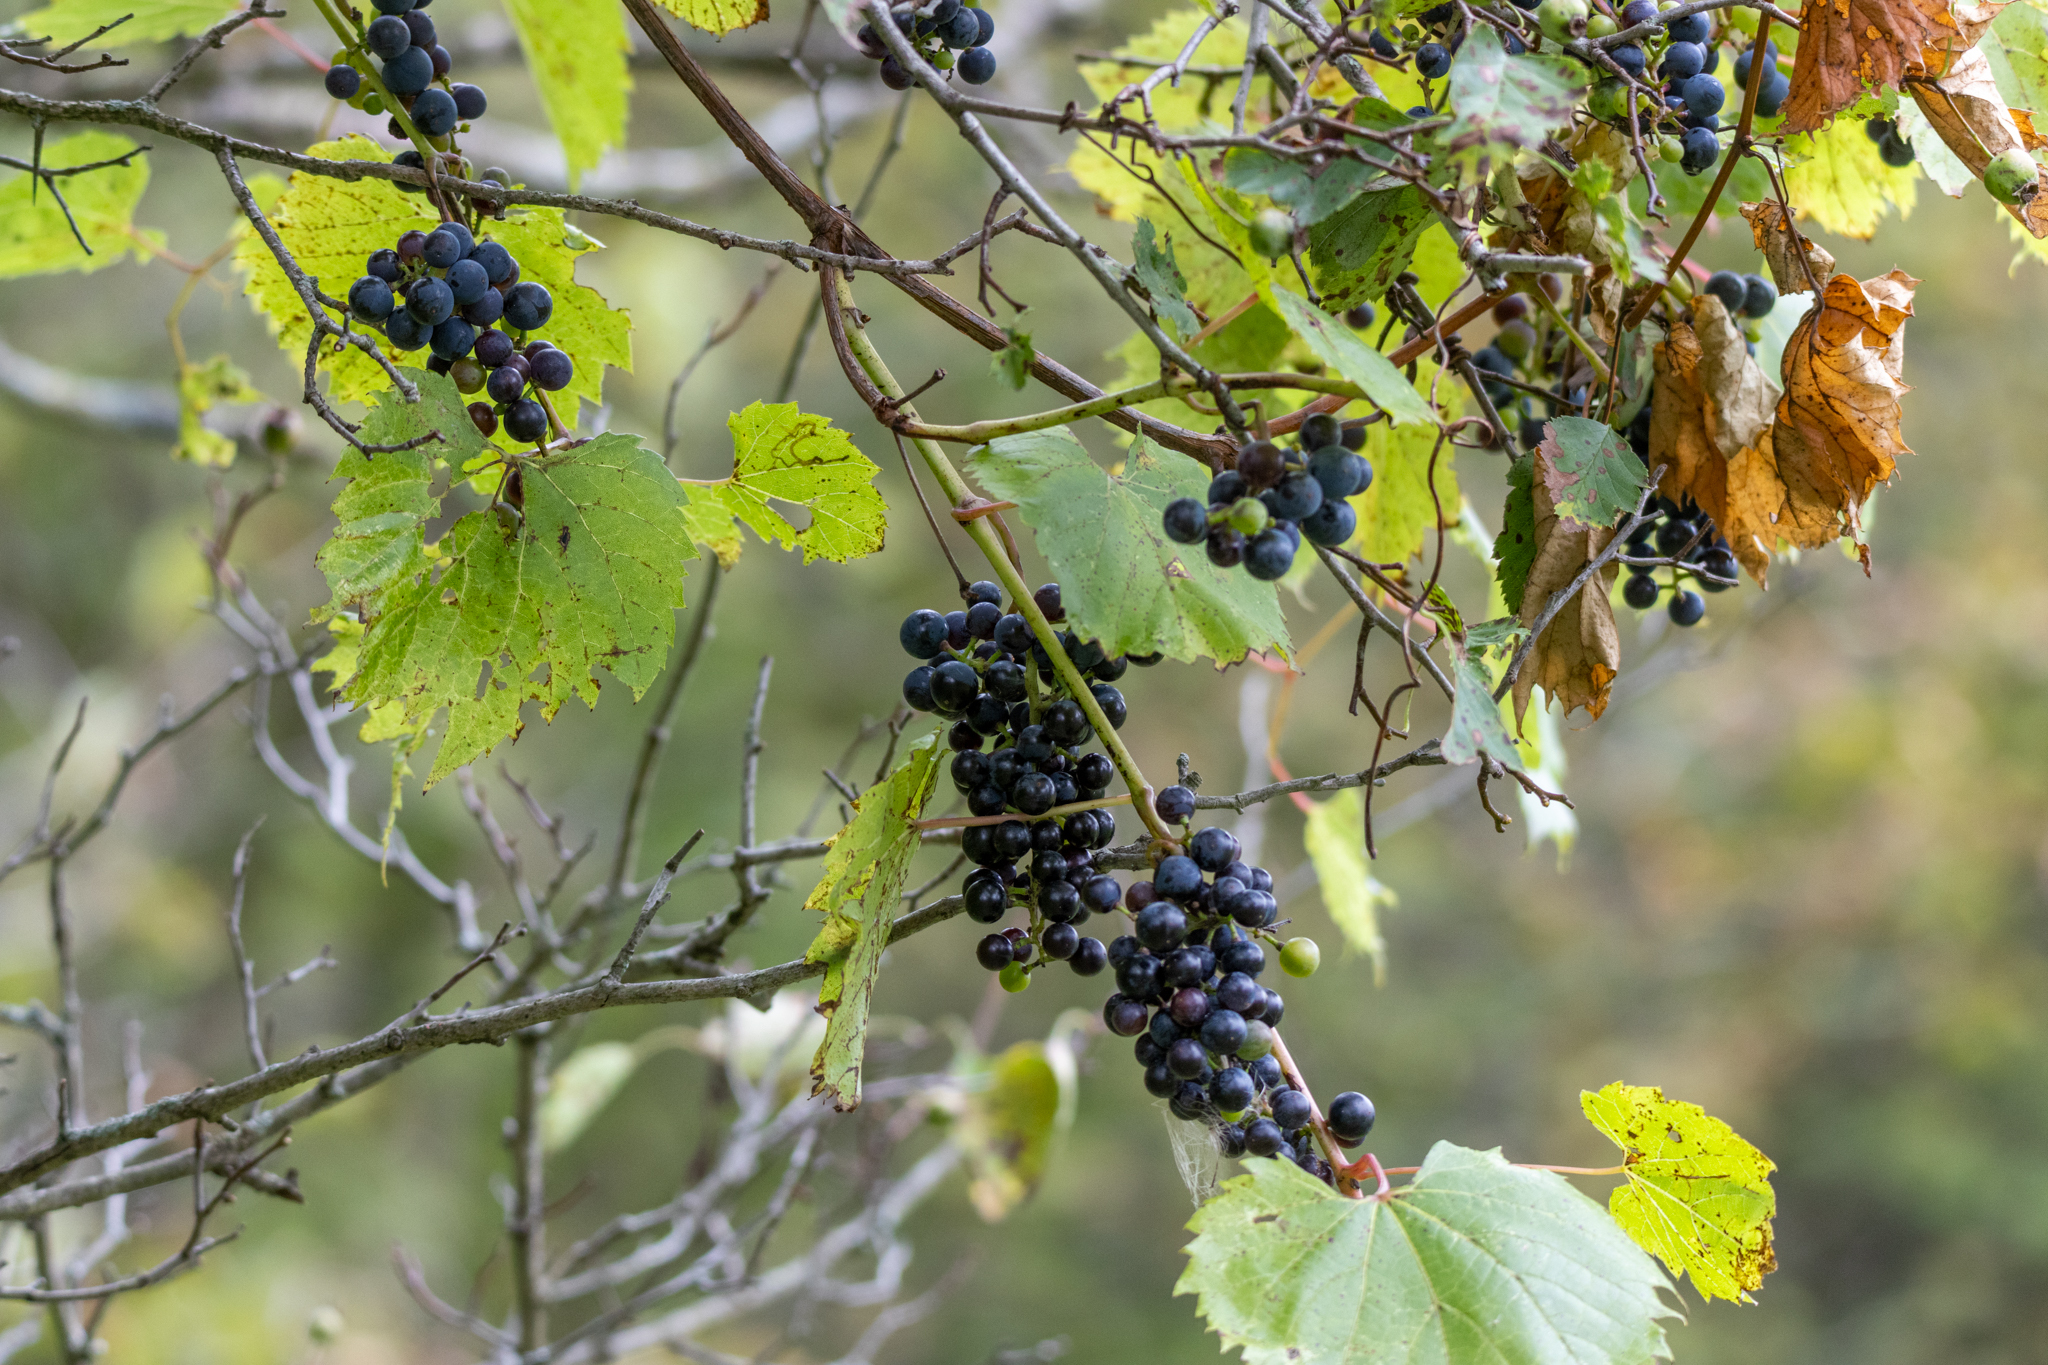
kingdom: Plantae
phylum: Tracheophyta
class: Magnoliopsida
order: Vitales
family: Vitaceae
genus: Vitis
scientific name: Vitis riparia
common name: Frost grape
